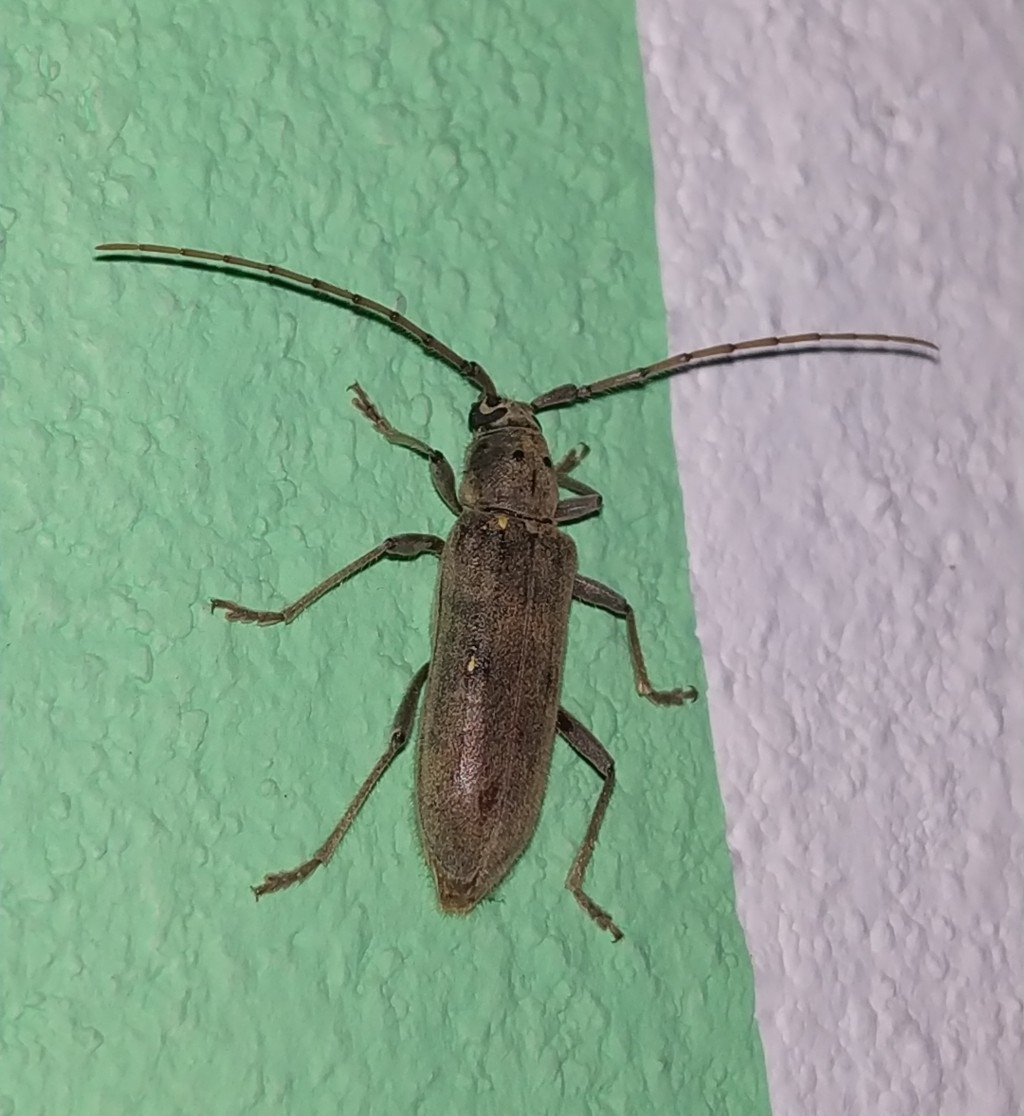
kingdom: Animalia
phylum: Arthropoda
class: Insecta
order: Coleoptera
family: Cerambycidae
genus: Eburia
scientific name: Eburia mutica
